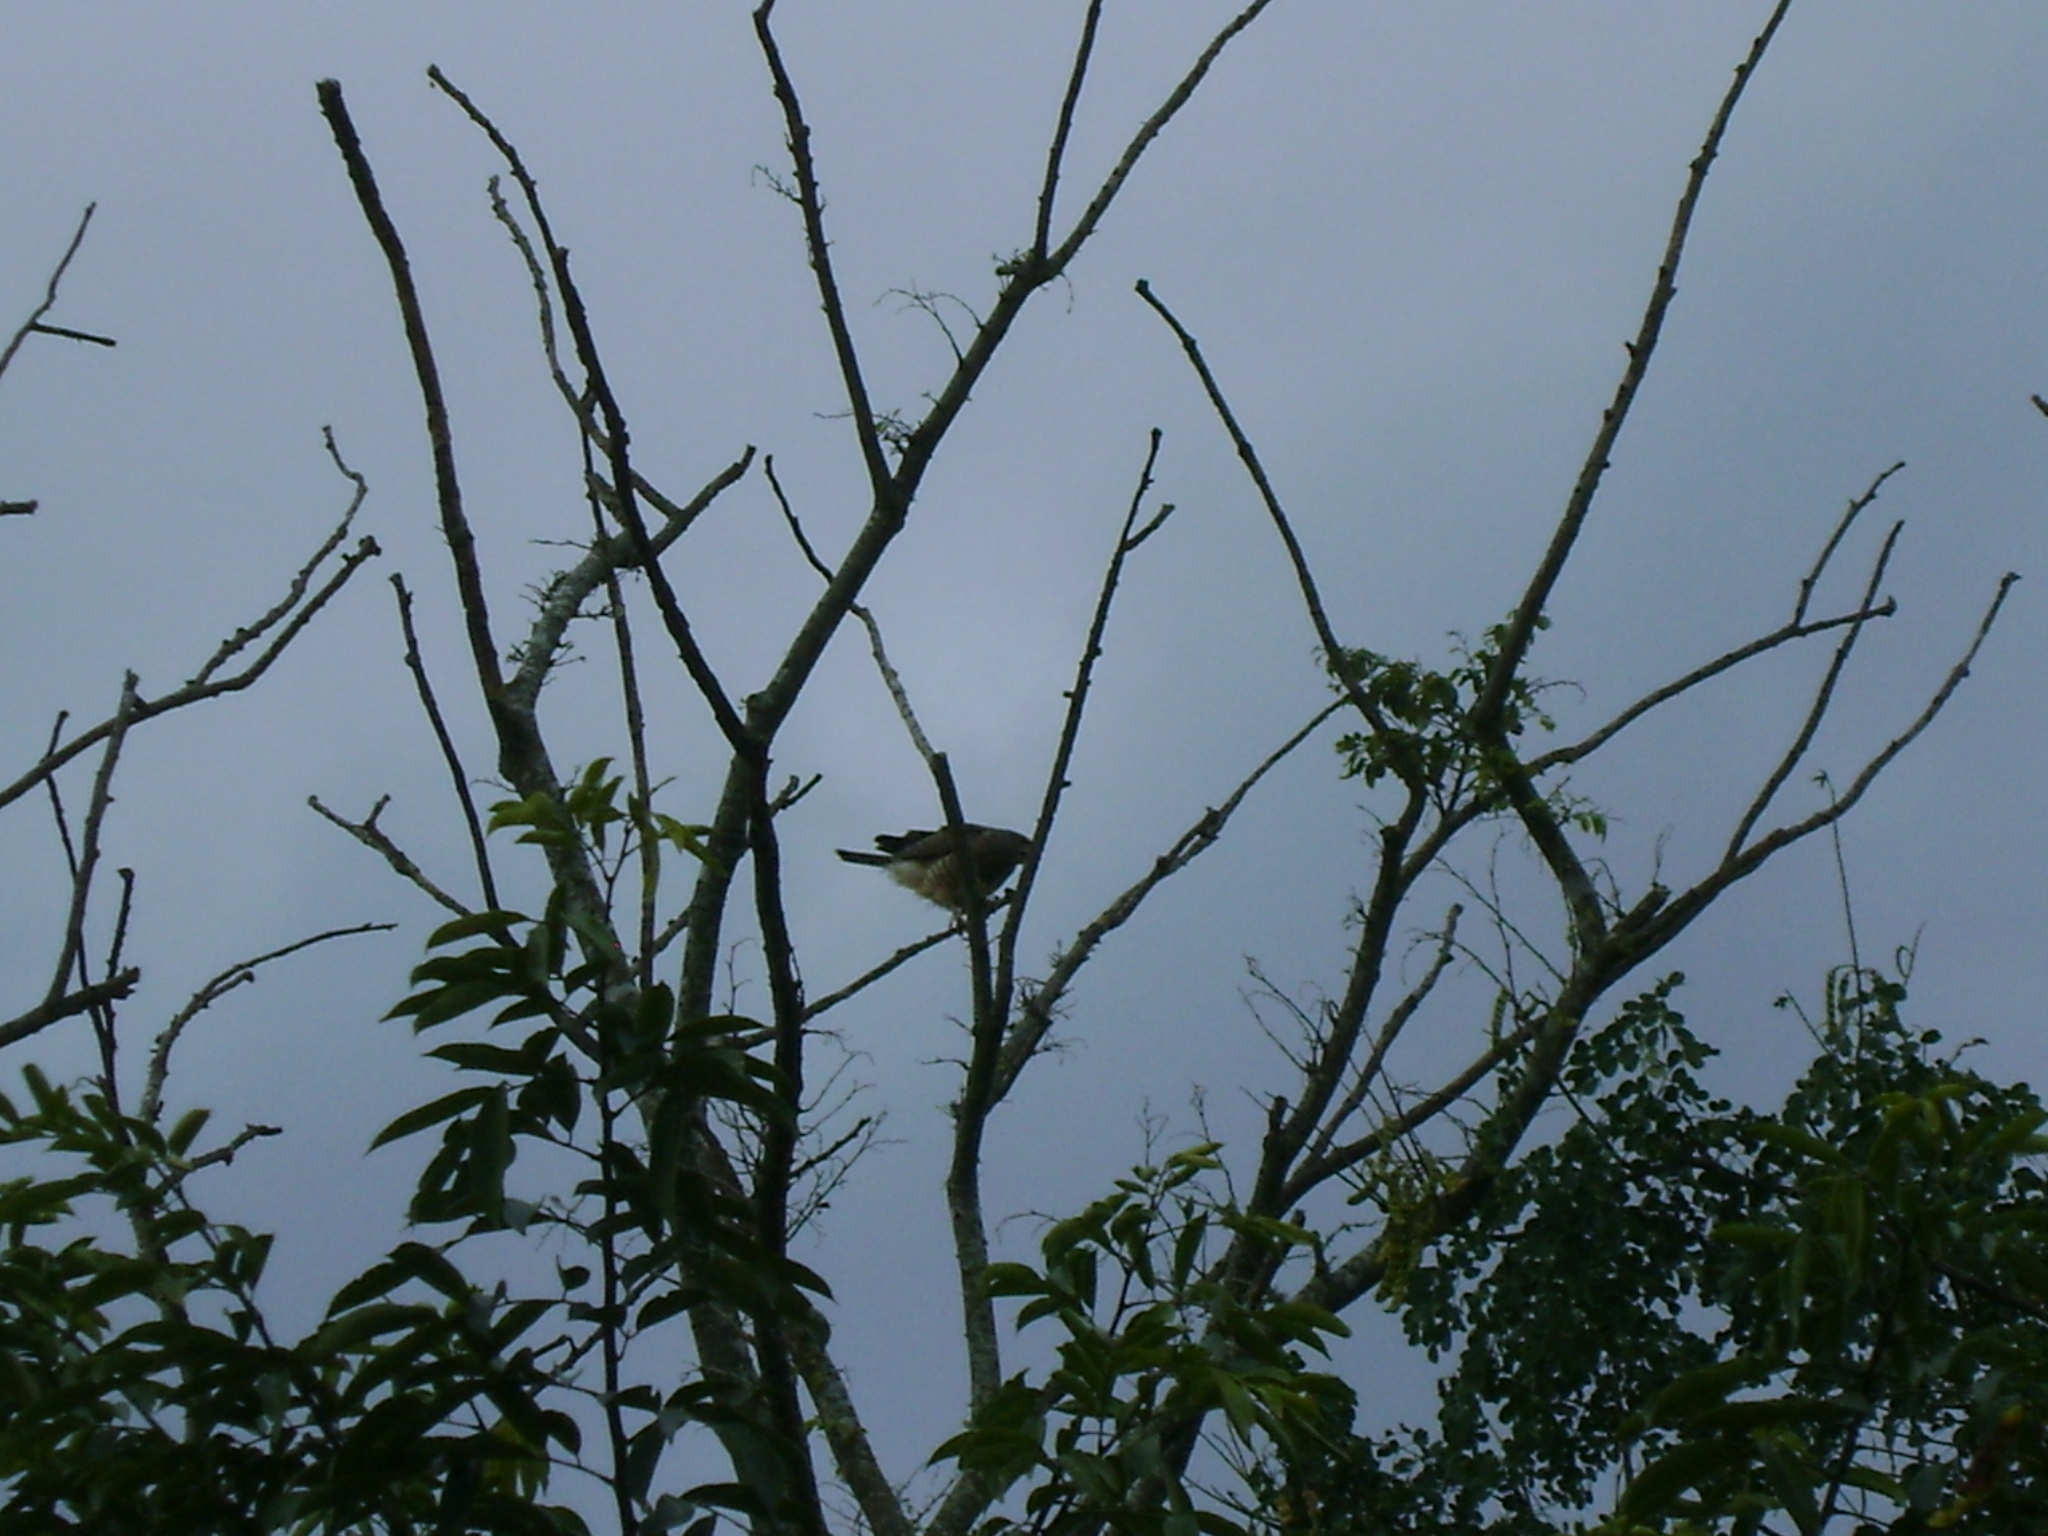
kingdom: Animalia
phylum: Chordata
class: Aves
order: Accipitriformes
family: Accipitridae
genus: Rupornis
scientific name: Rupornis magnirostris
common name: Roadside hawk
